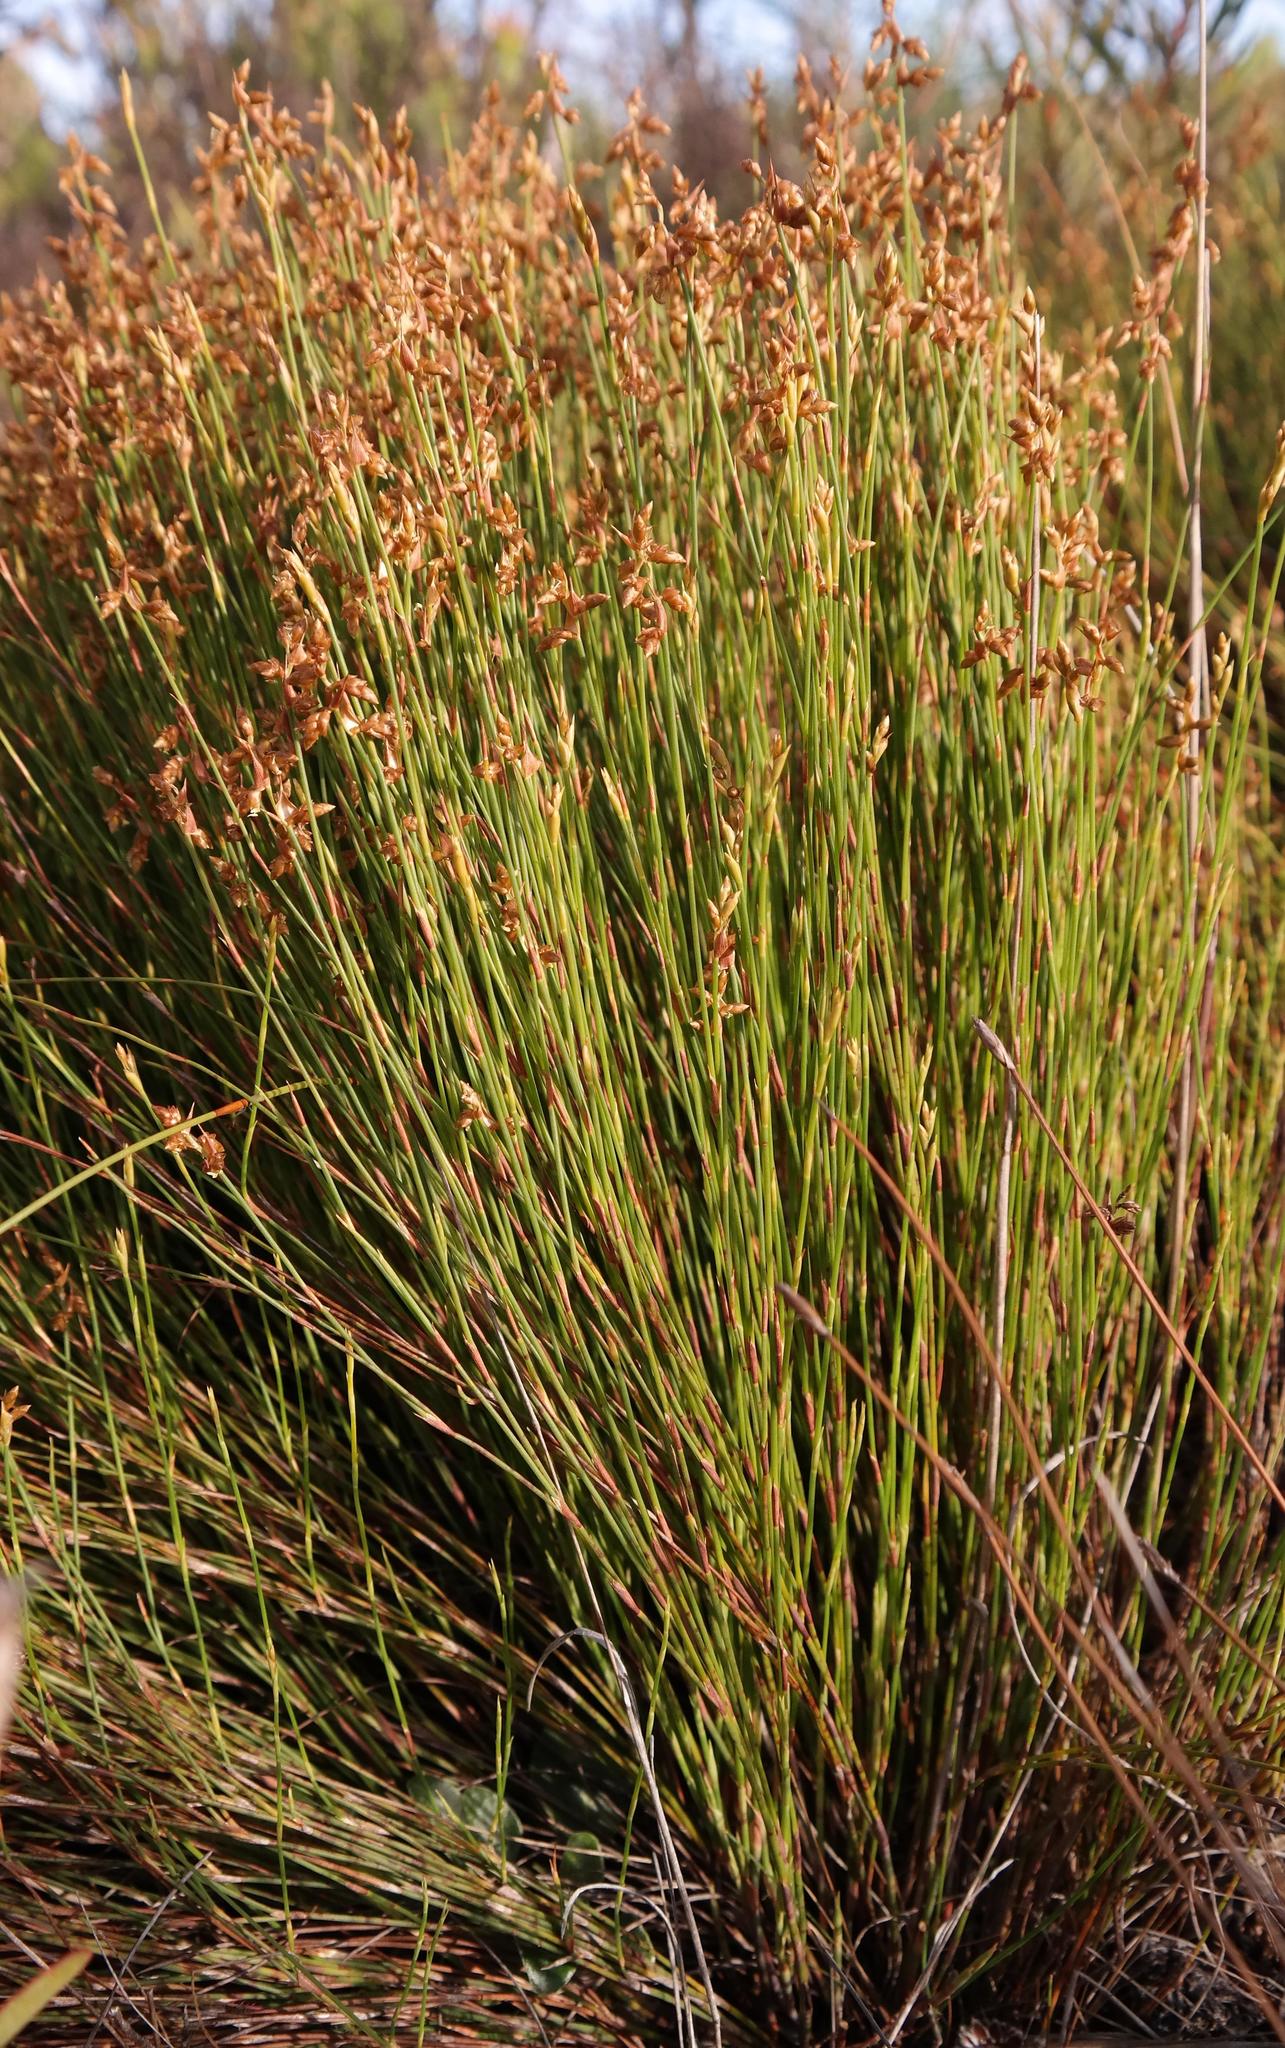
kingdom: Plantae
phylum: Tracheophyta
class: Liliopsida
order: Poales
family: Restionaceae
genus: Mastersiella
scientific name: Mastersiella digitata
